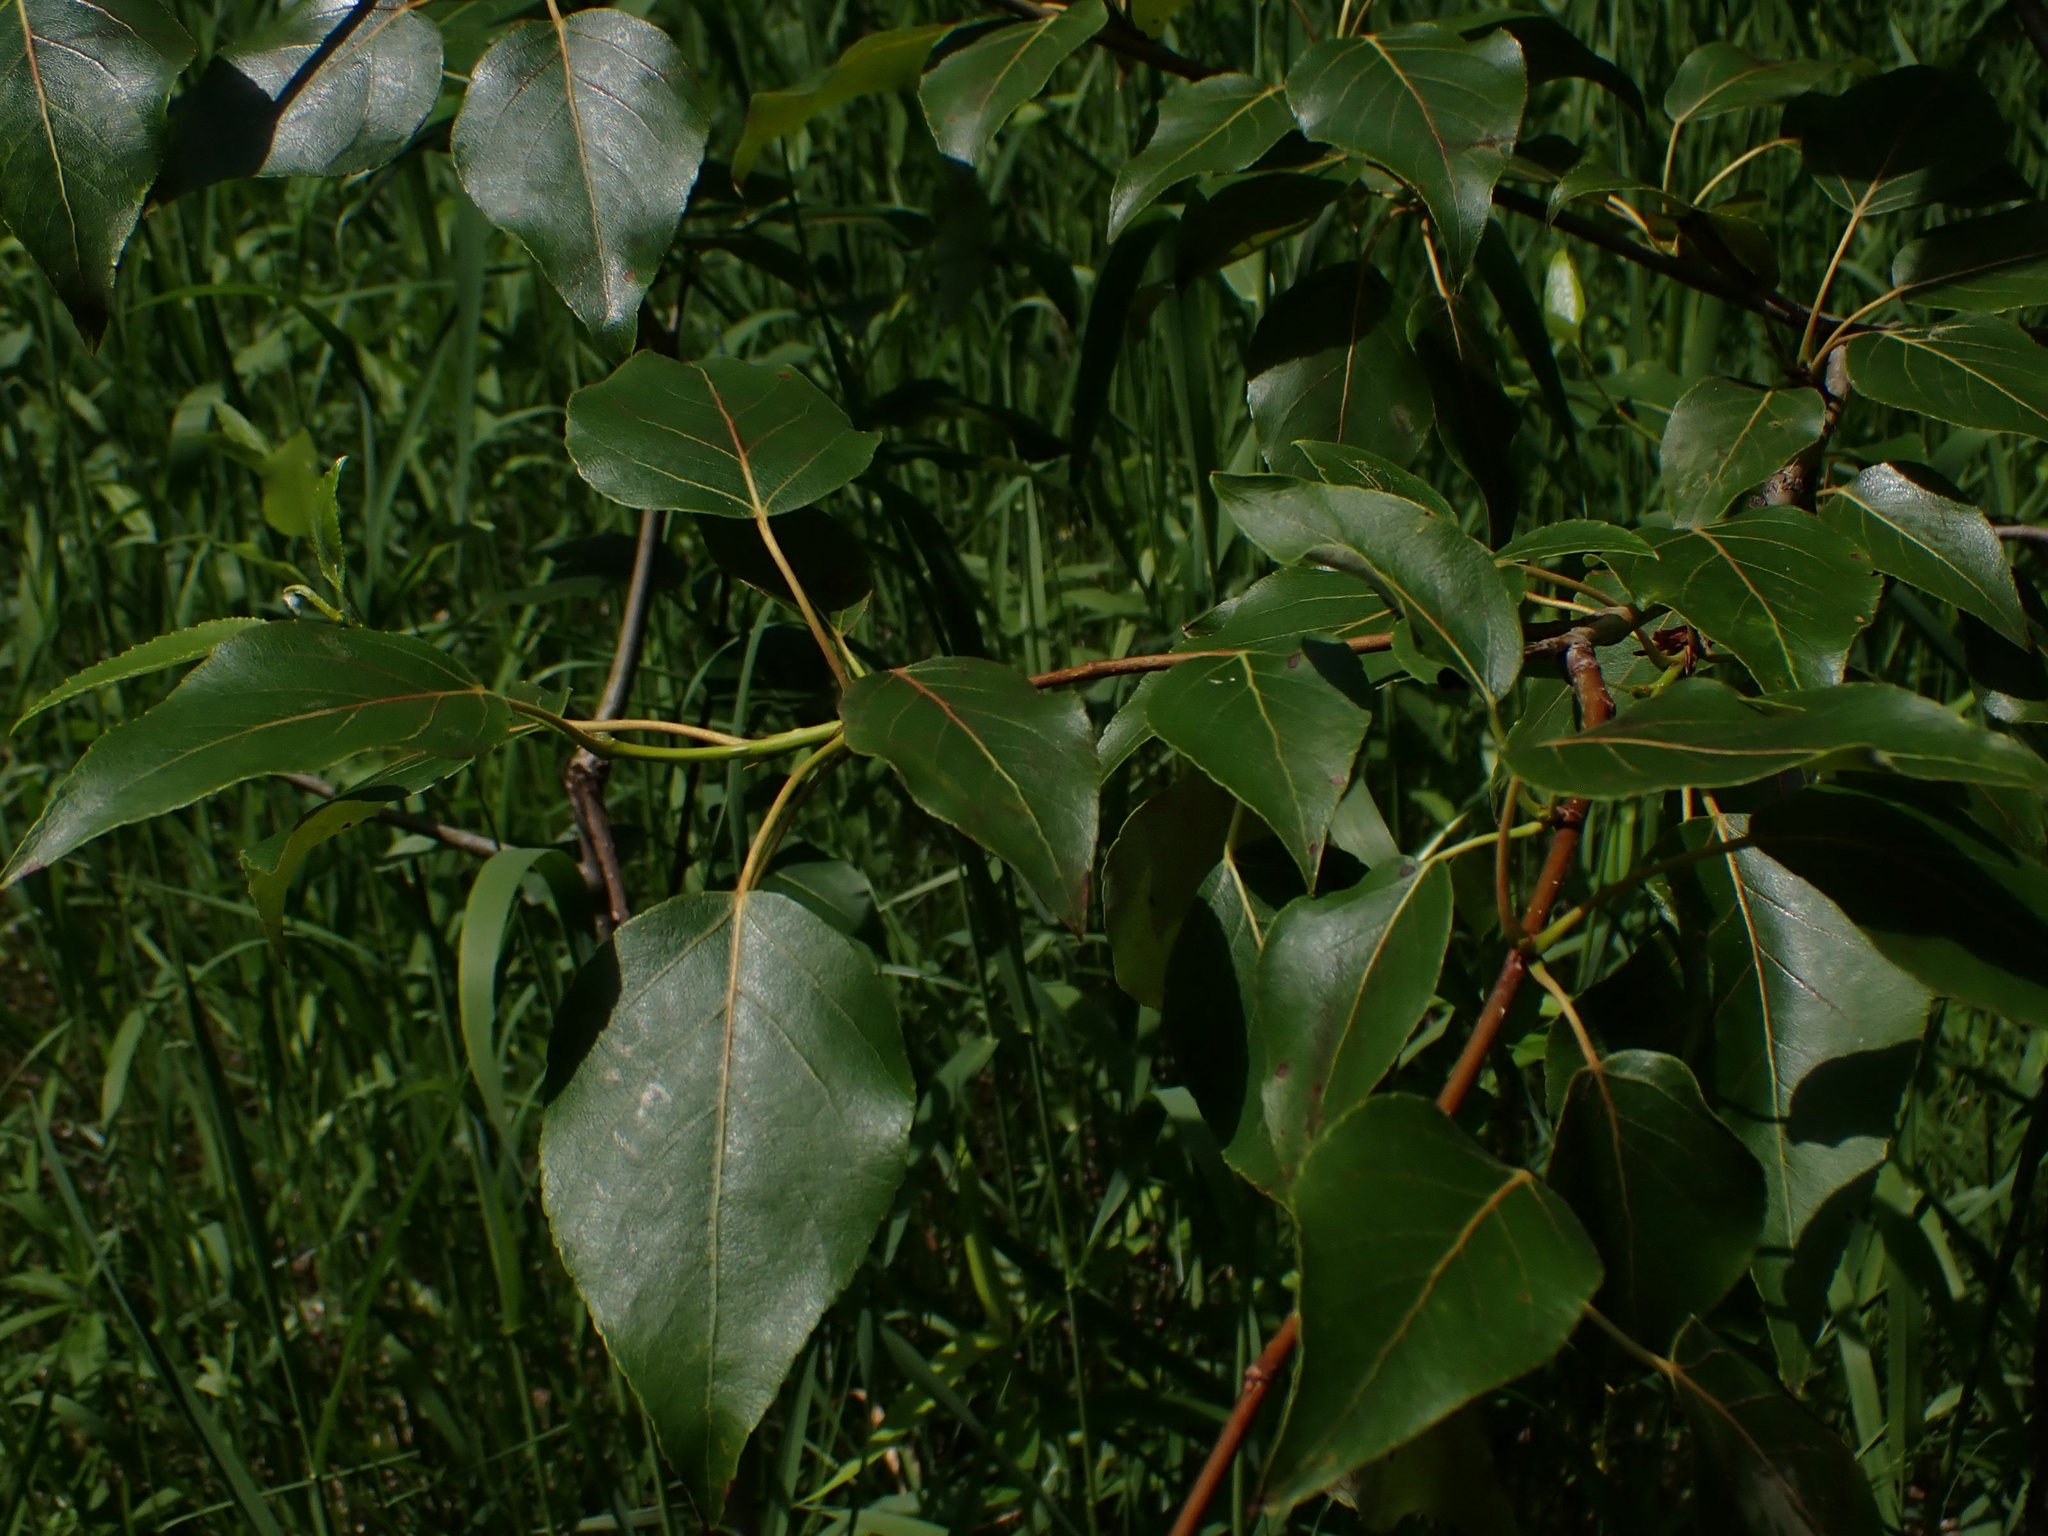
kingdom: Plantae
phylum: Tracheophyta
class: Magnoliopsida
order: Malpighiales
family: Salicaceae
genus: Populus
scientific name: Populus balsamifera
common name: Balsam poplar
